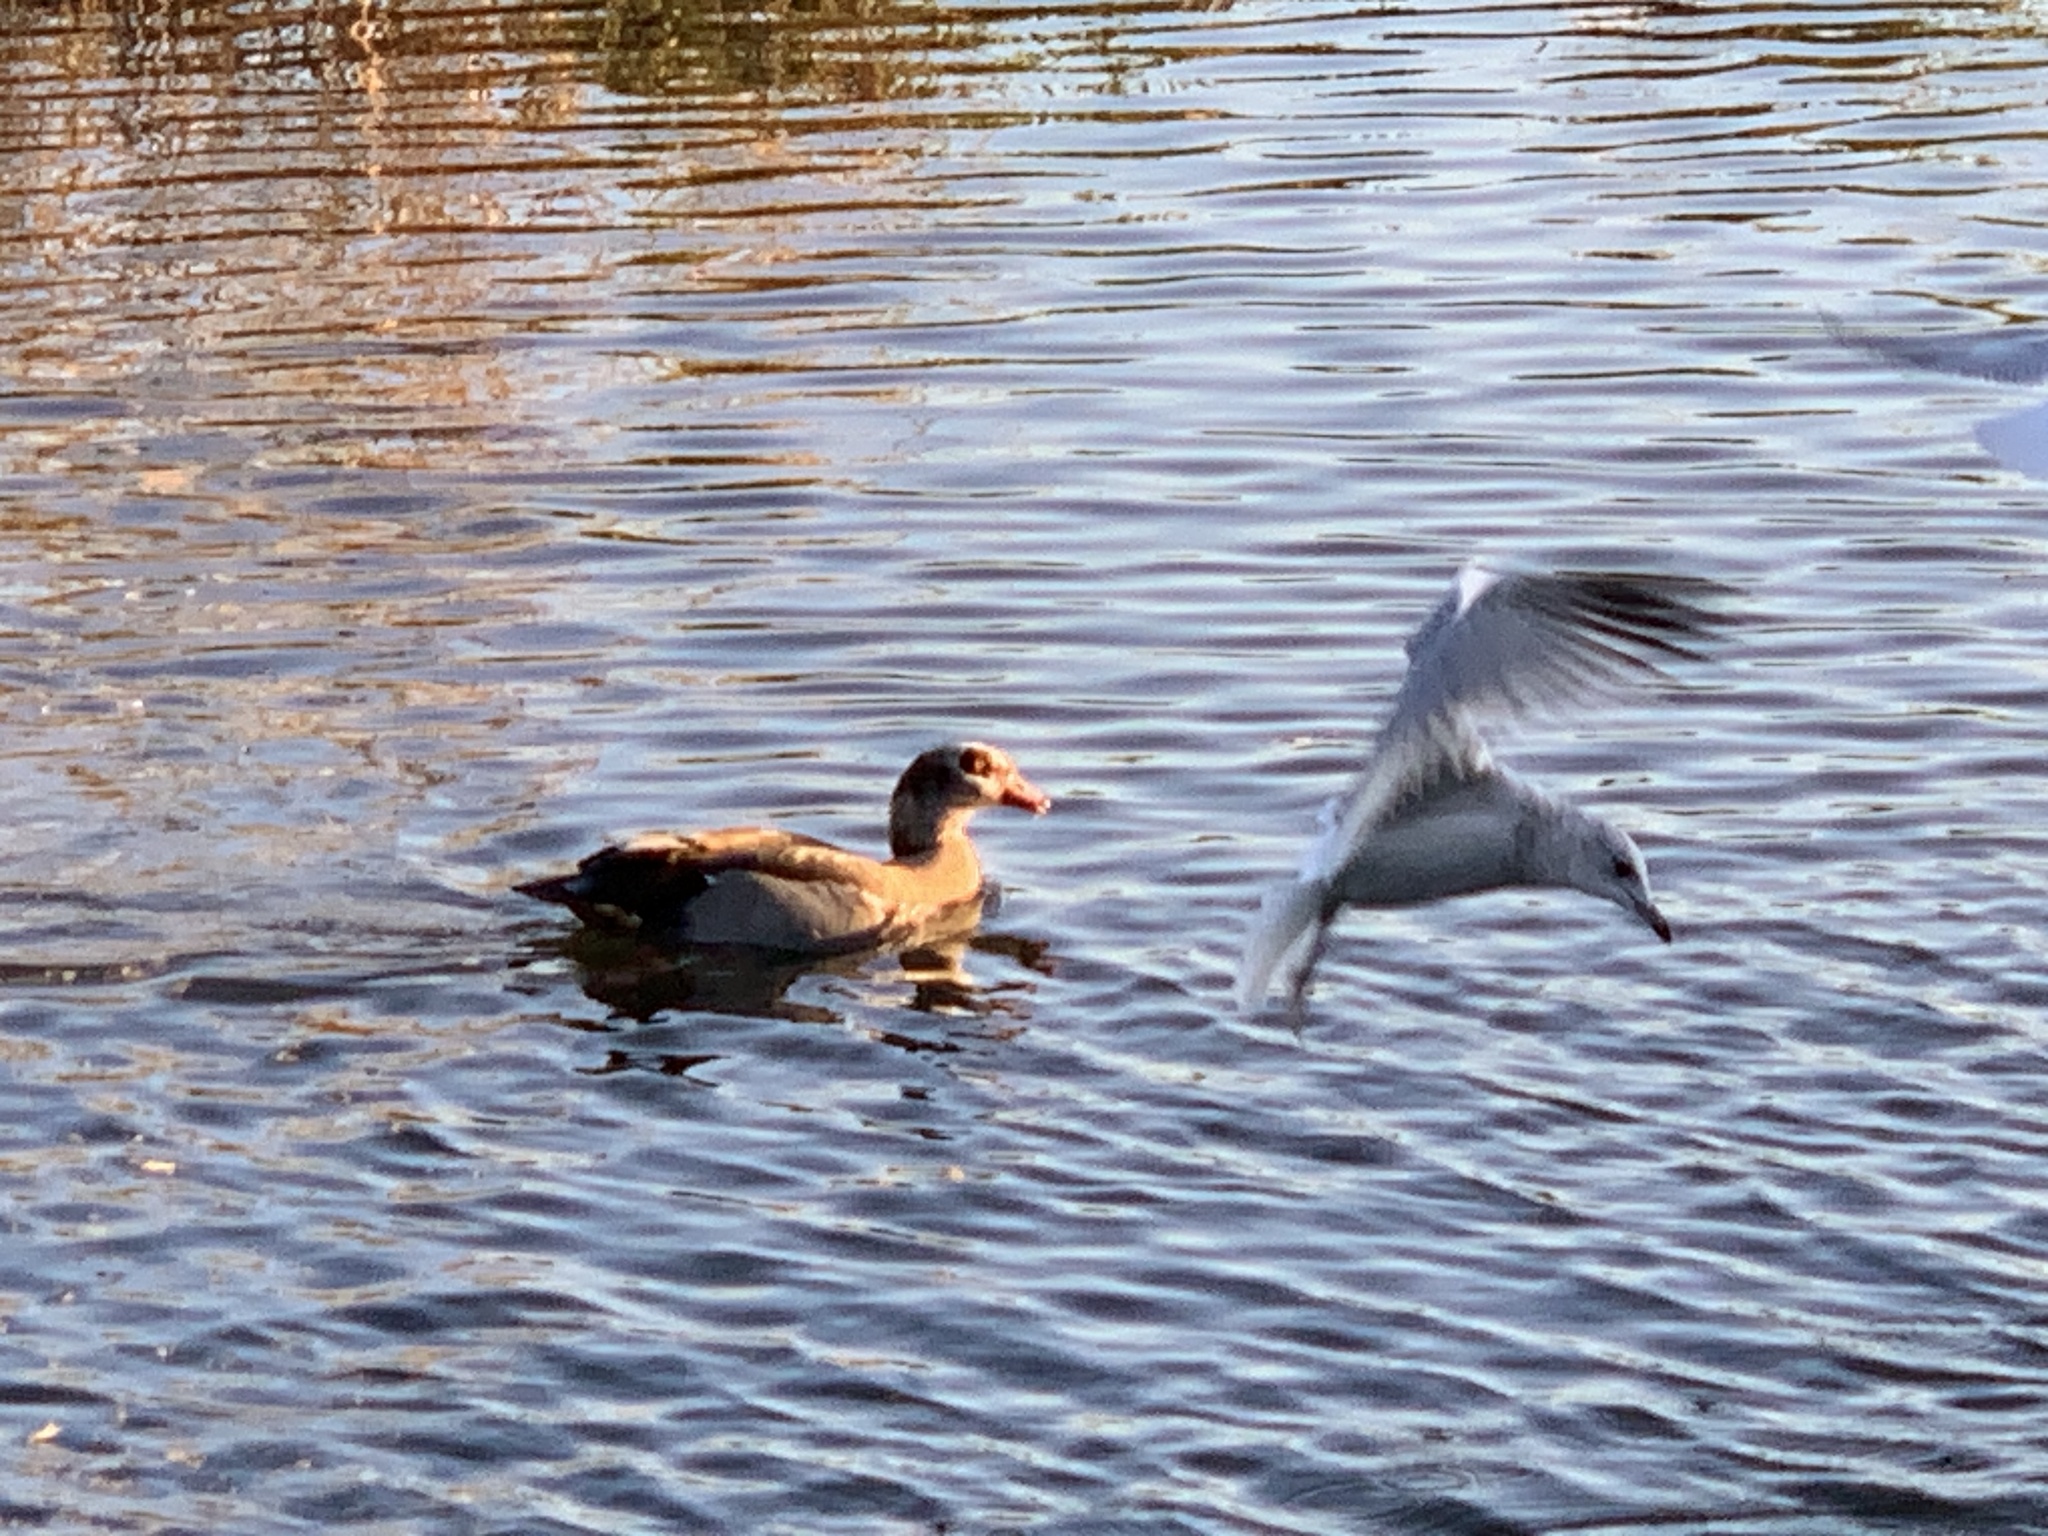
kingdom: Animalia
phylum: Chordata
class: Aves
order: Anseriformes
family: Anatidae
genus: Alopochen
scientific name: Alopochen aegyptiaca
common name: Egyptian goose
